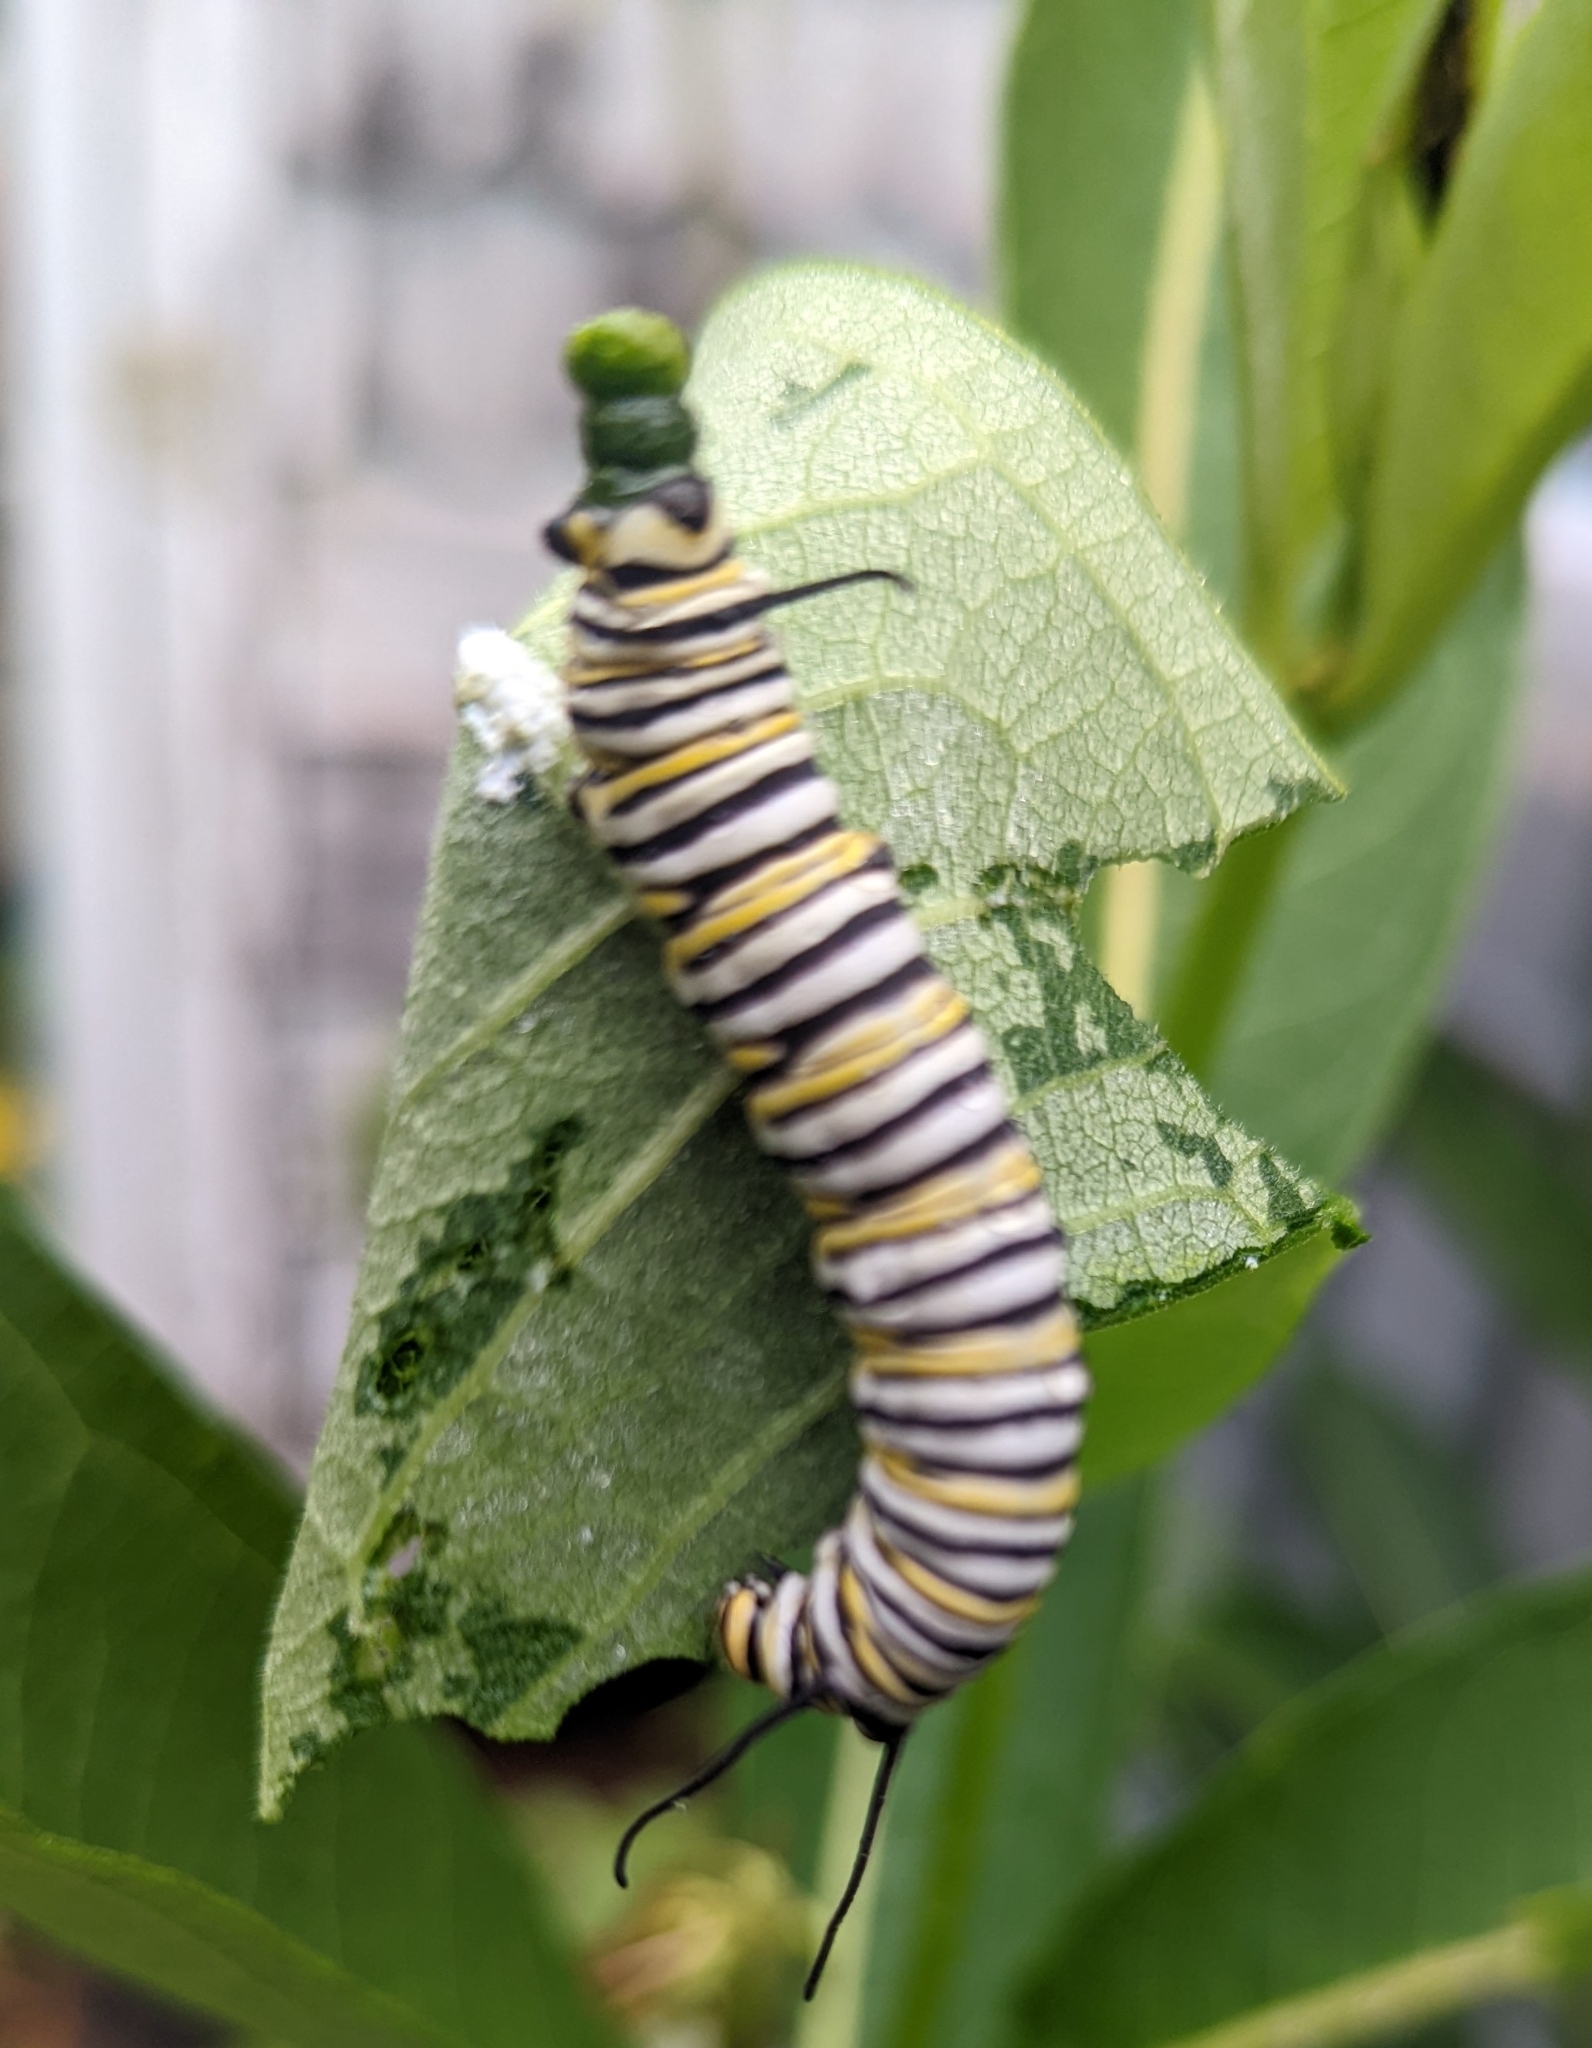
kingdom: Animalia
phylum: Arthropoda
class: Insecta
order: Lepidoptera
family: Nymphalidae
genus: Danaus
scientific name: Danaus plexippus
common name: Monarch
